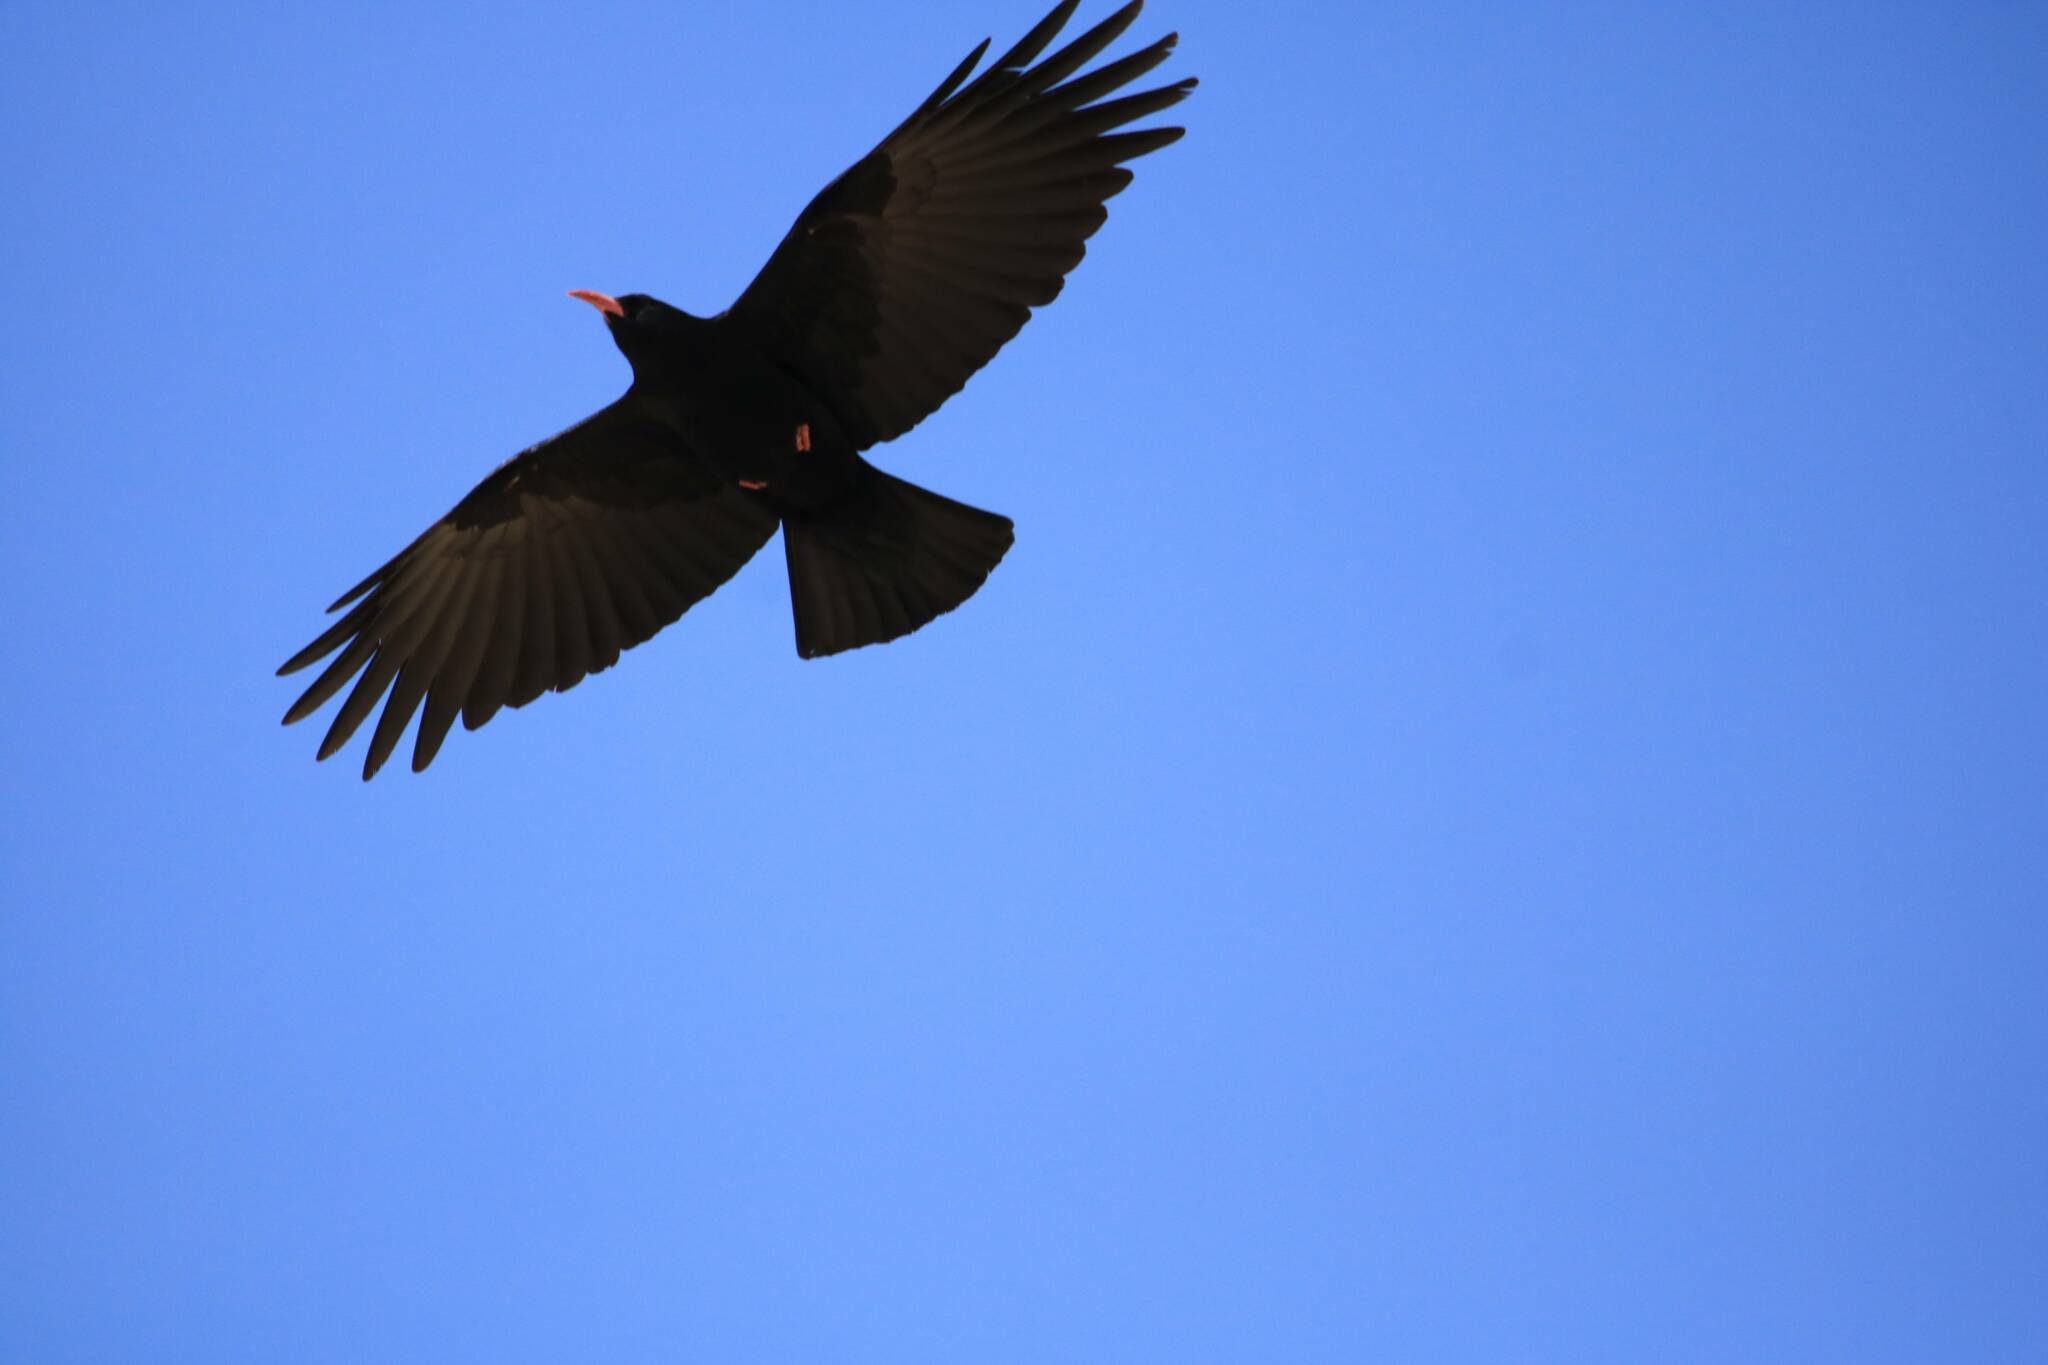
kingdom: Animalia
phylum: Chordata
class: Aves
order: Passeriformes
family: Corvidae
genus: Pyrrhocorax
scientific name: Pyrrhocorax pyrrhocorax
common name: Red-billed chough
